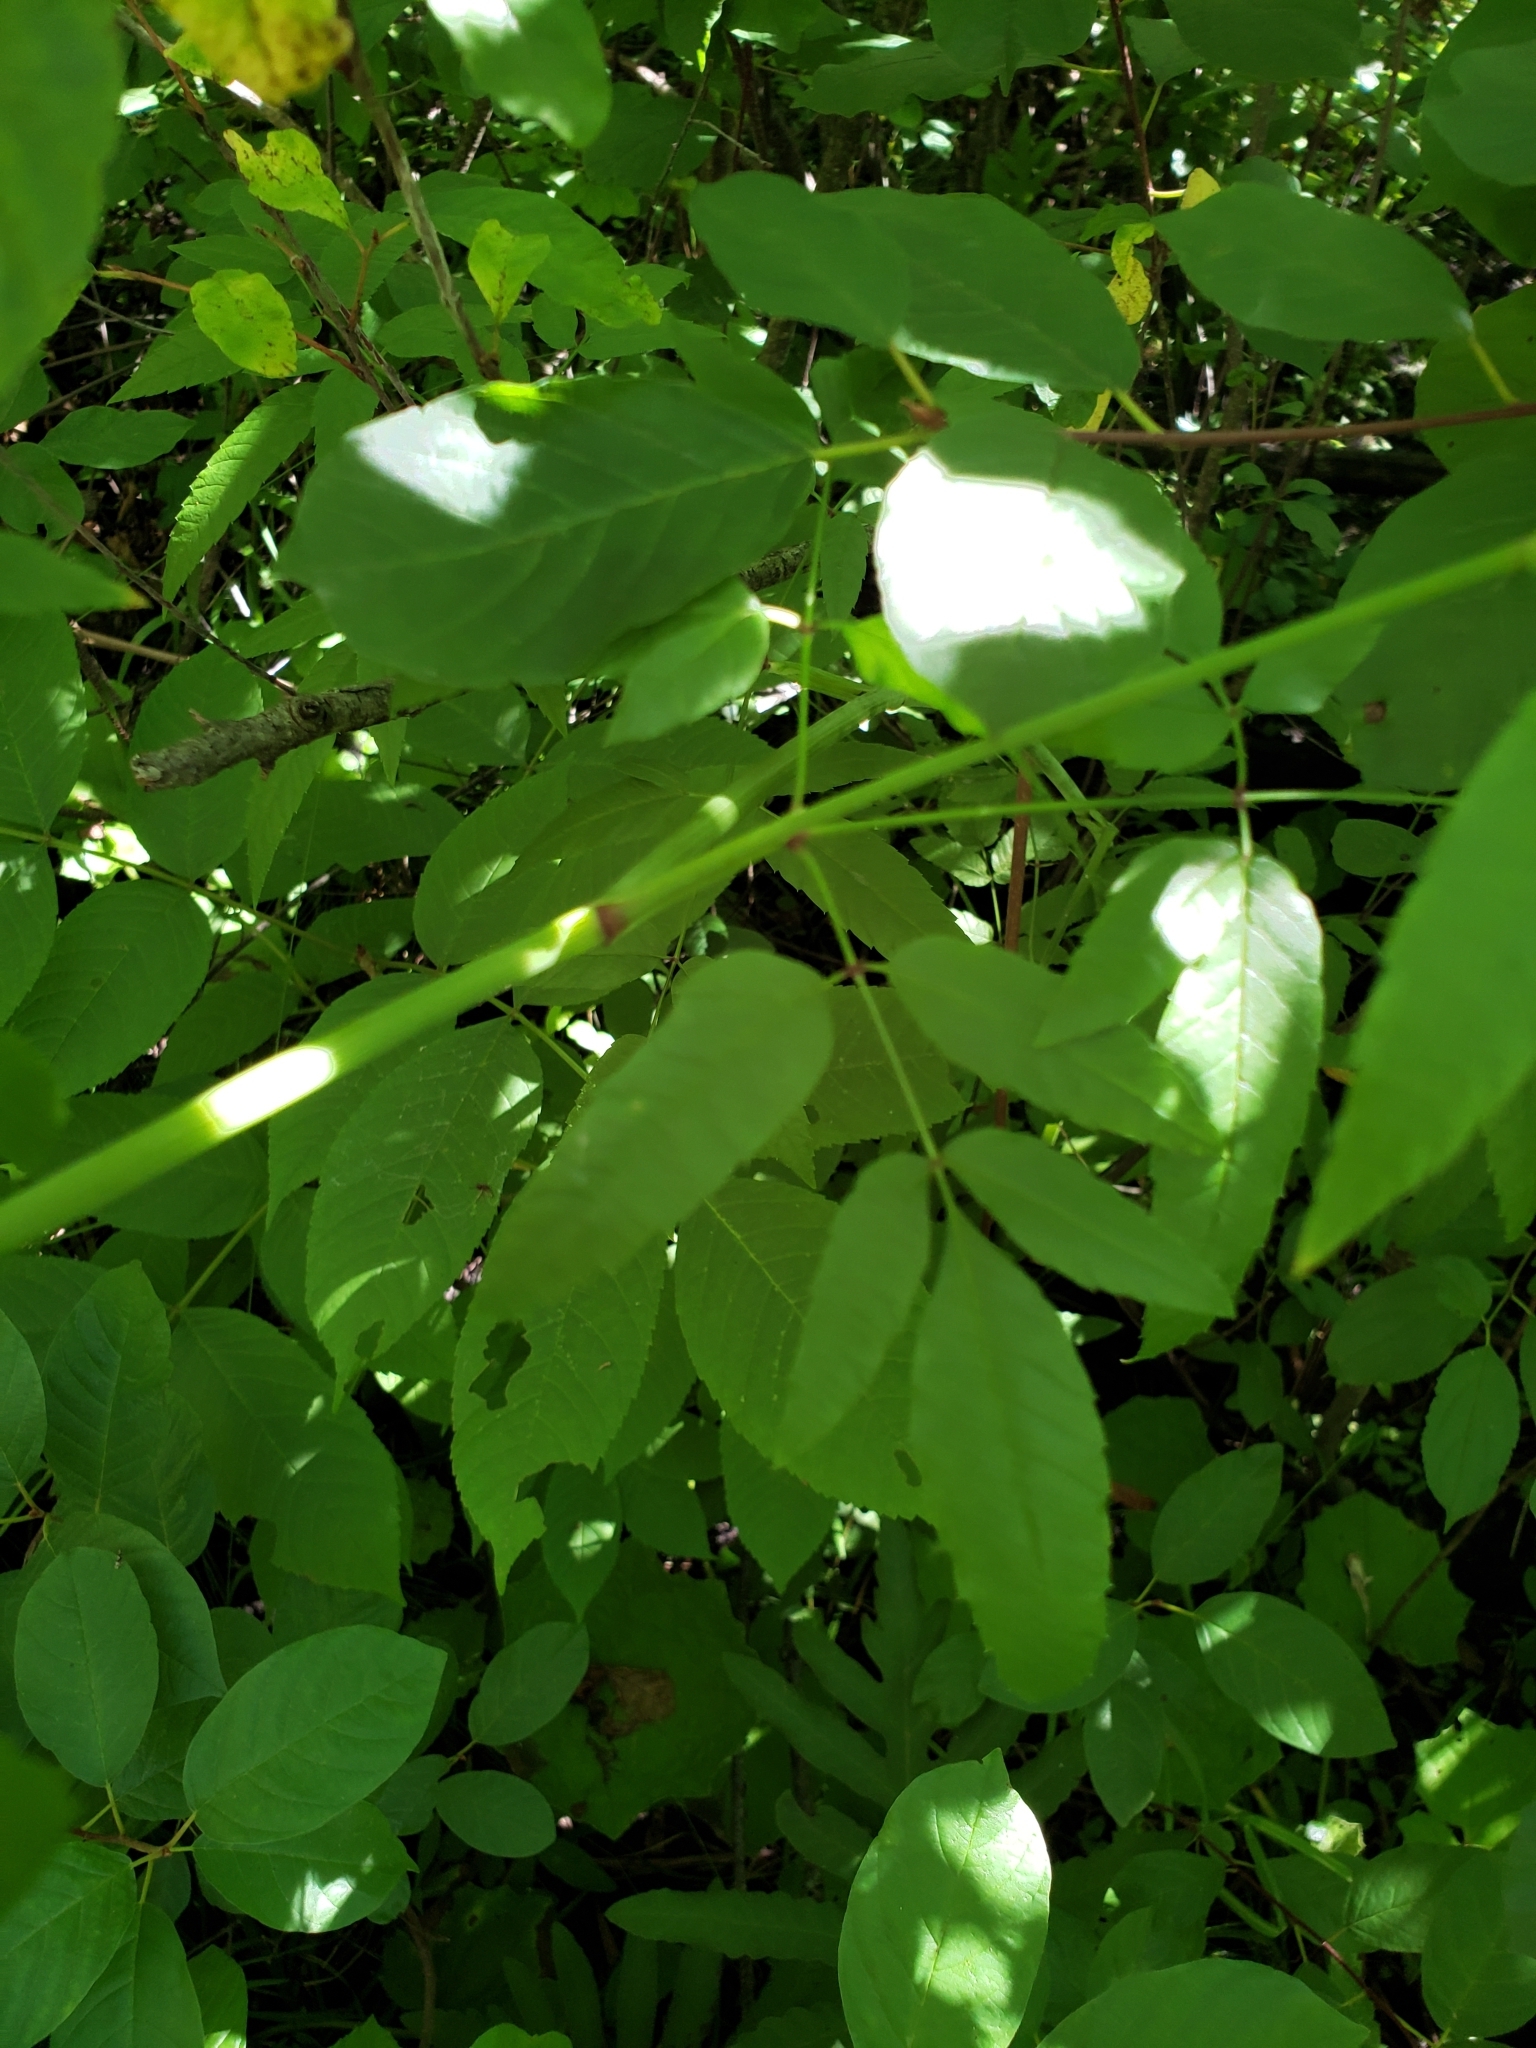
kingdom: Plantae
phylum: Tracheophyta
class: Magnoliopsida
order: Apiales
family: Apiaceae
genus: Cicuta
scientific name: Cicuta maculata
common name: Spotted cowbane
